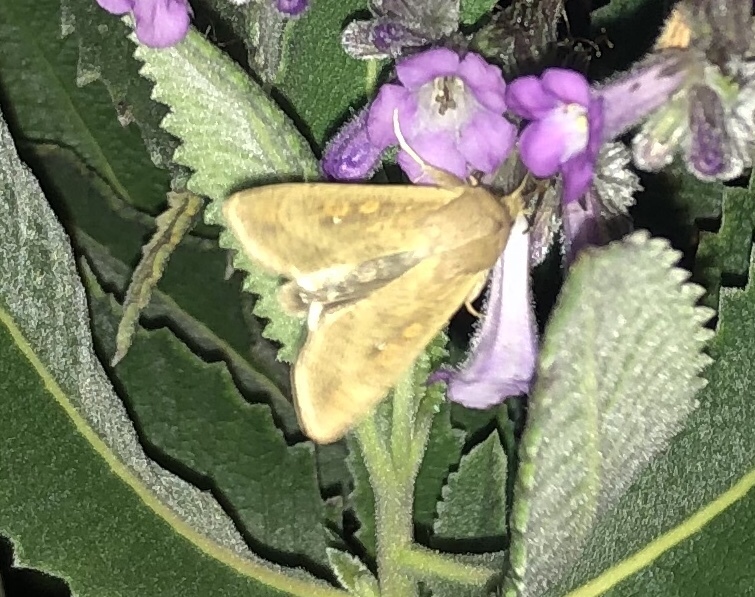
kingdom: Animalia
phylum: Arthropoda
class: Insecta
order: Lepidoptera
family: Noctuidae
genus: Mythimna
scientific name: Mythimna unipuncta
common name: White-speck
